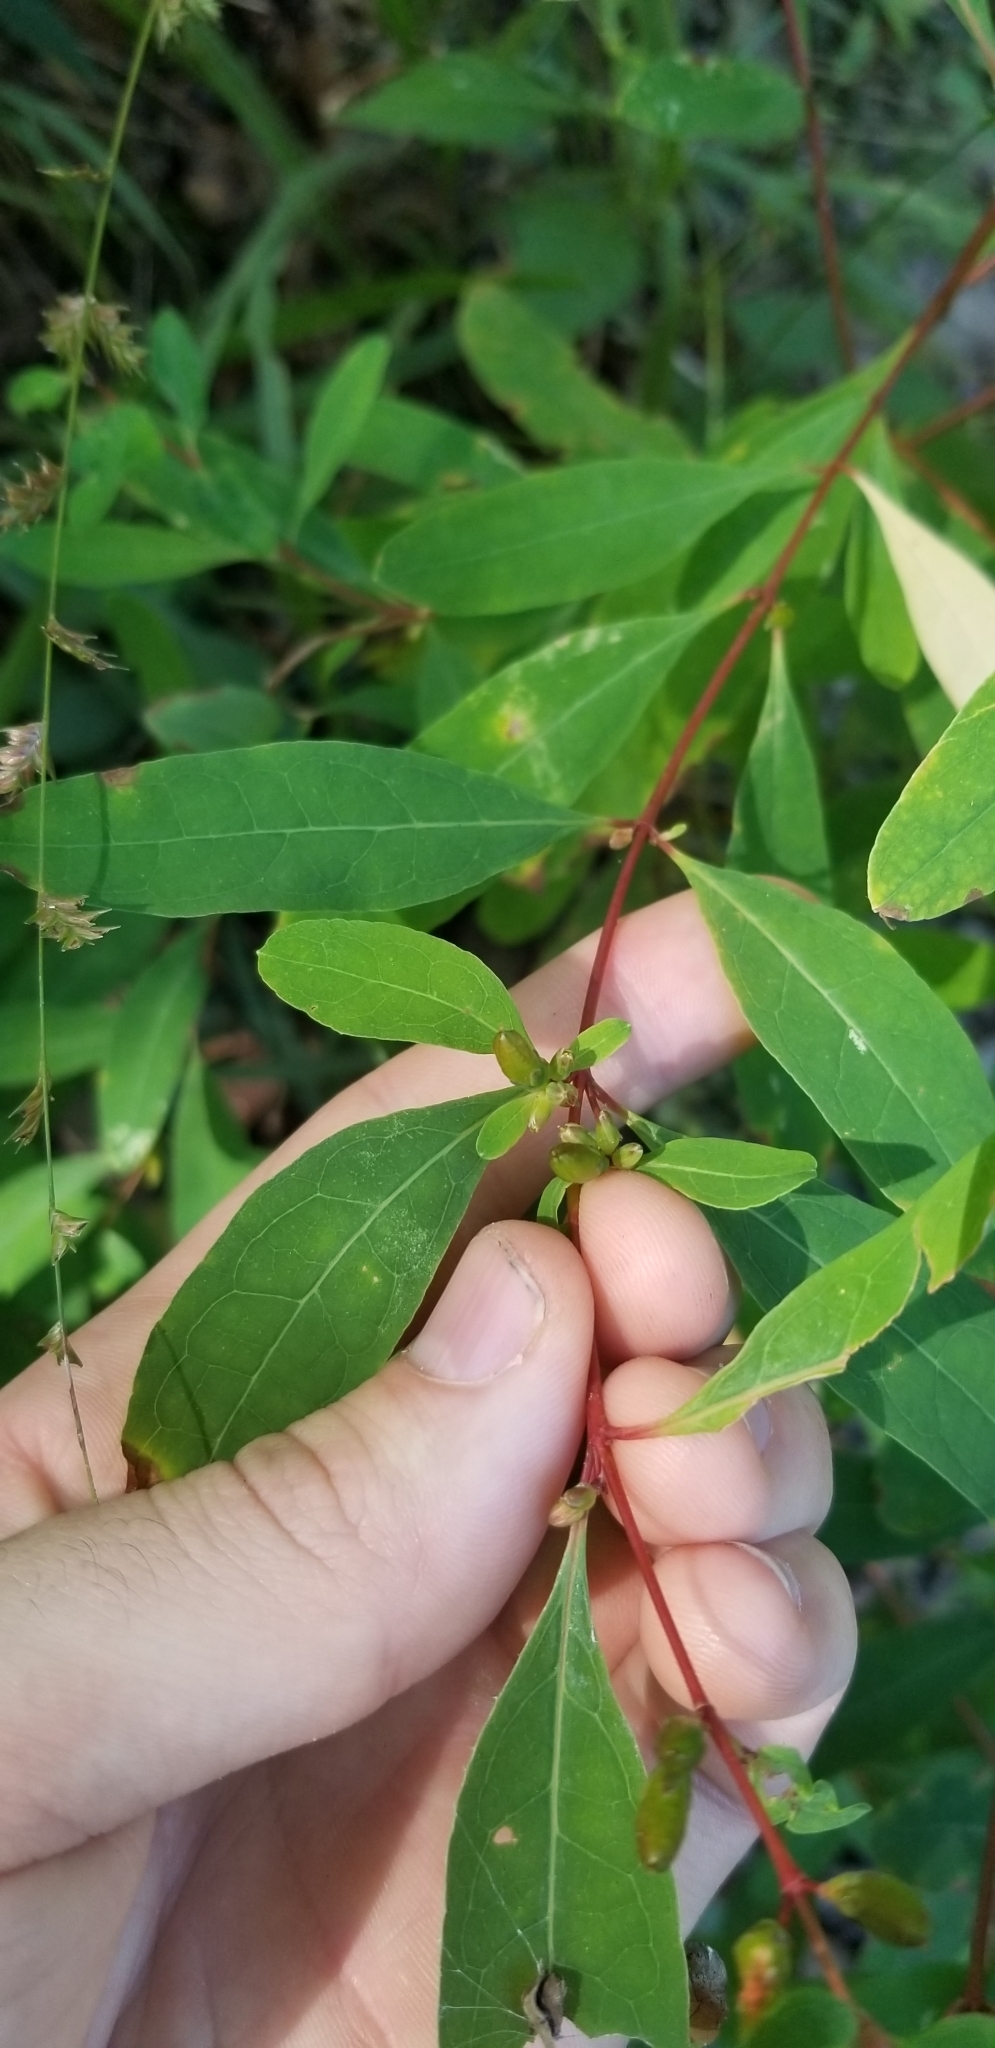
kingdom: Plantae
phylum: Tracheophyta
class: Magnoliopsida
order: Malpighiales
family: Hypericaceae
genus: Triadenum
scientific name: Triadenum walteri
